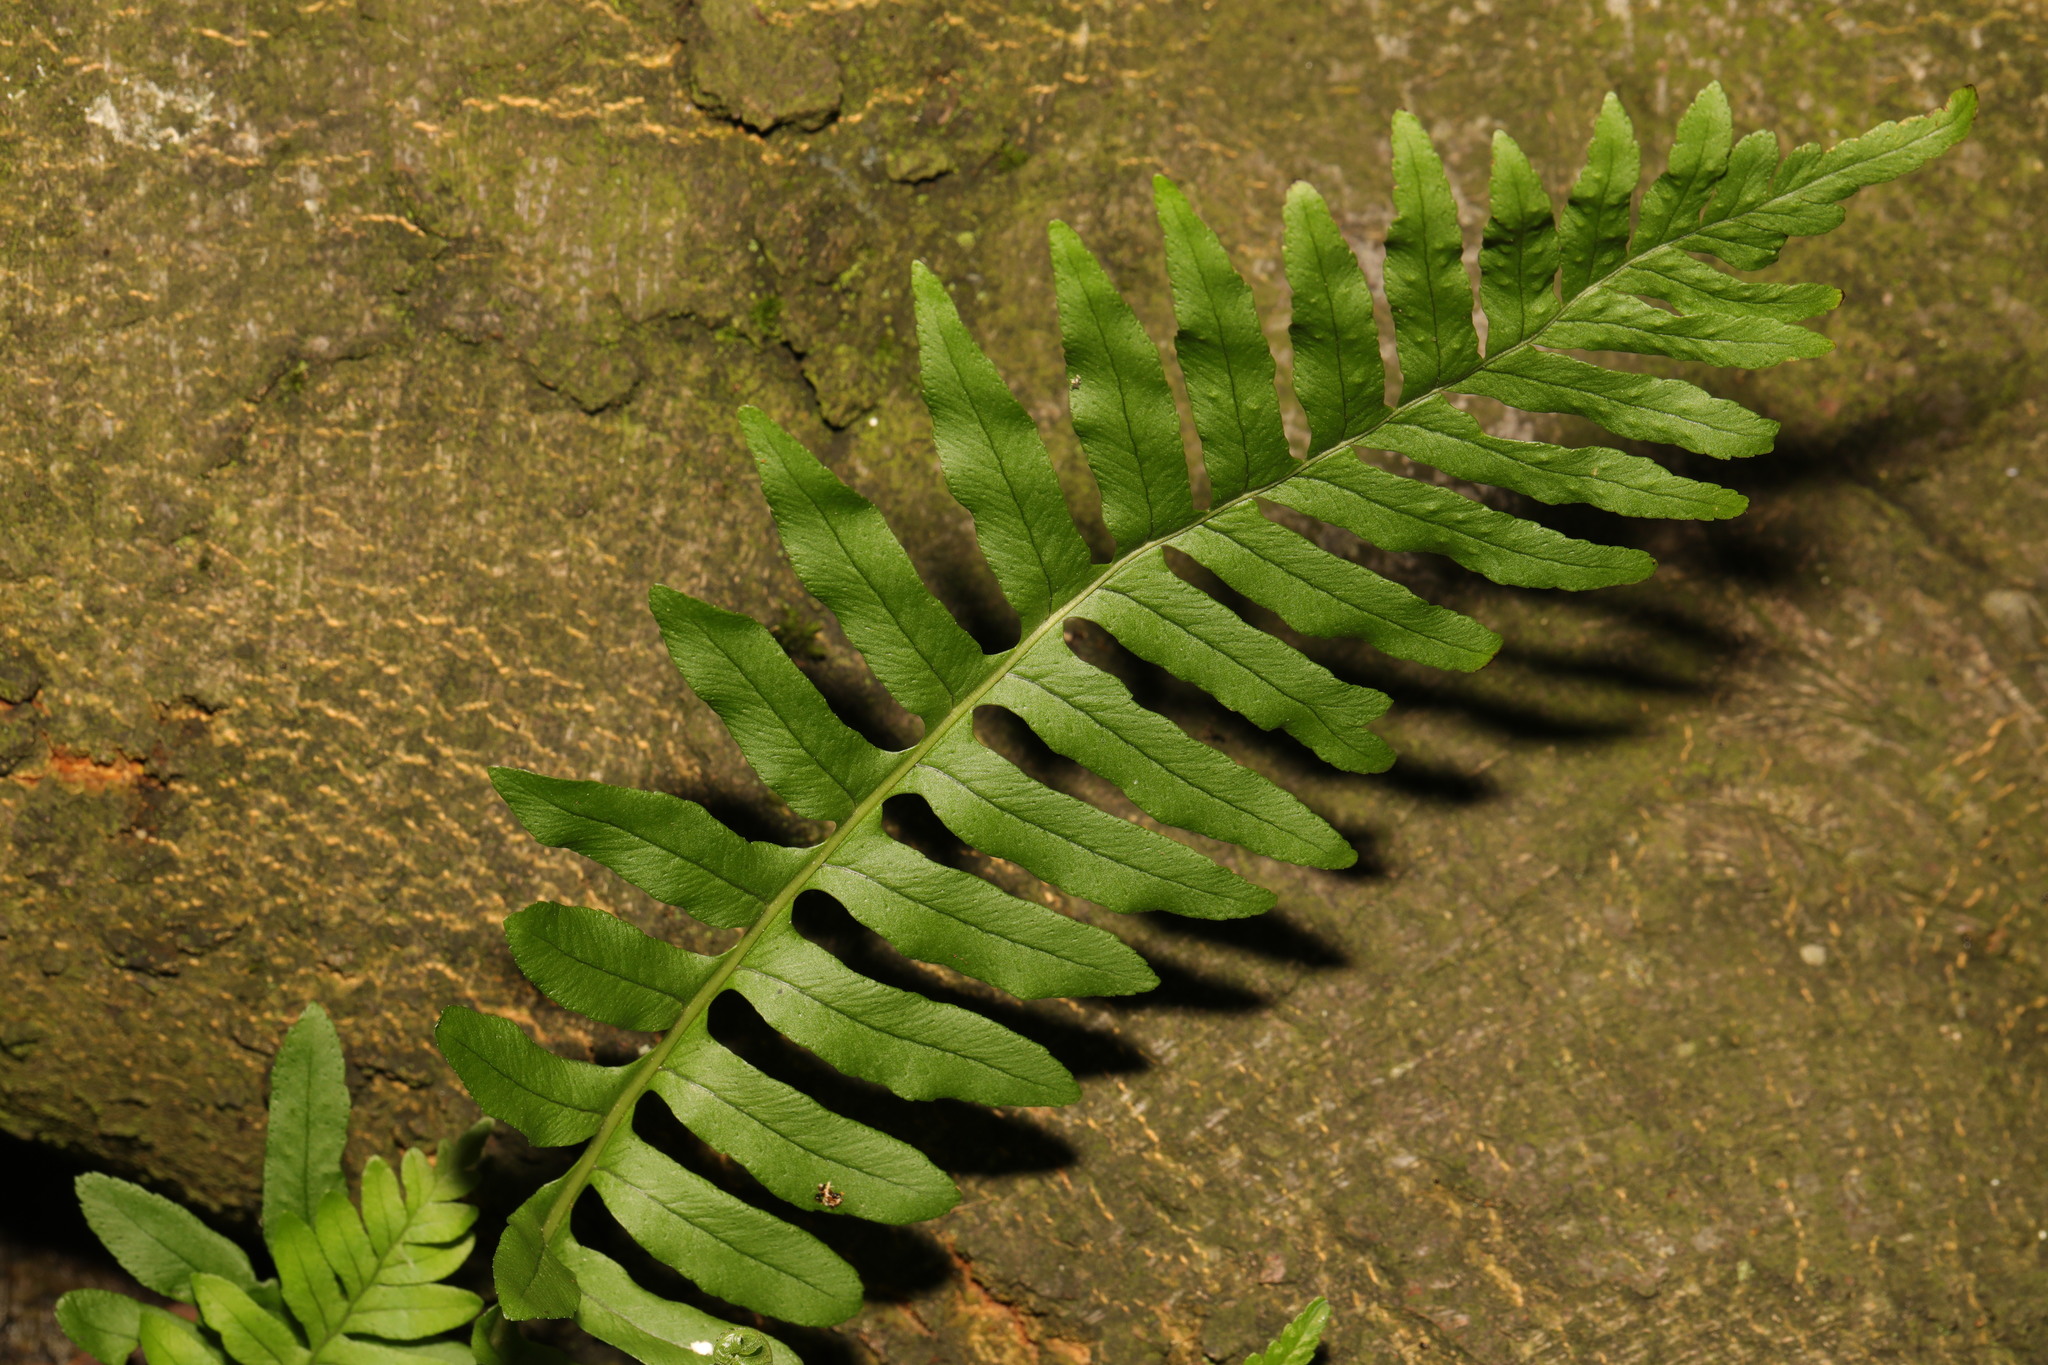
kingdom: Plantae
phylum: Tracheophyta
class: Polypodiopsida
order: Polypodiales
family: Polypodiaceae
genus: Polypodium
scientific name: Polypodium vulgare
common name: Common polypody
